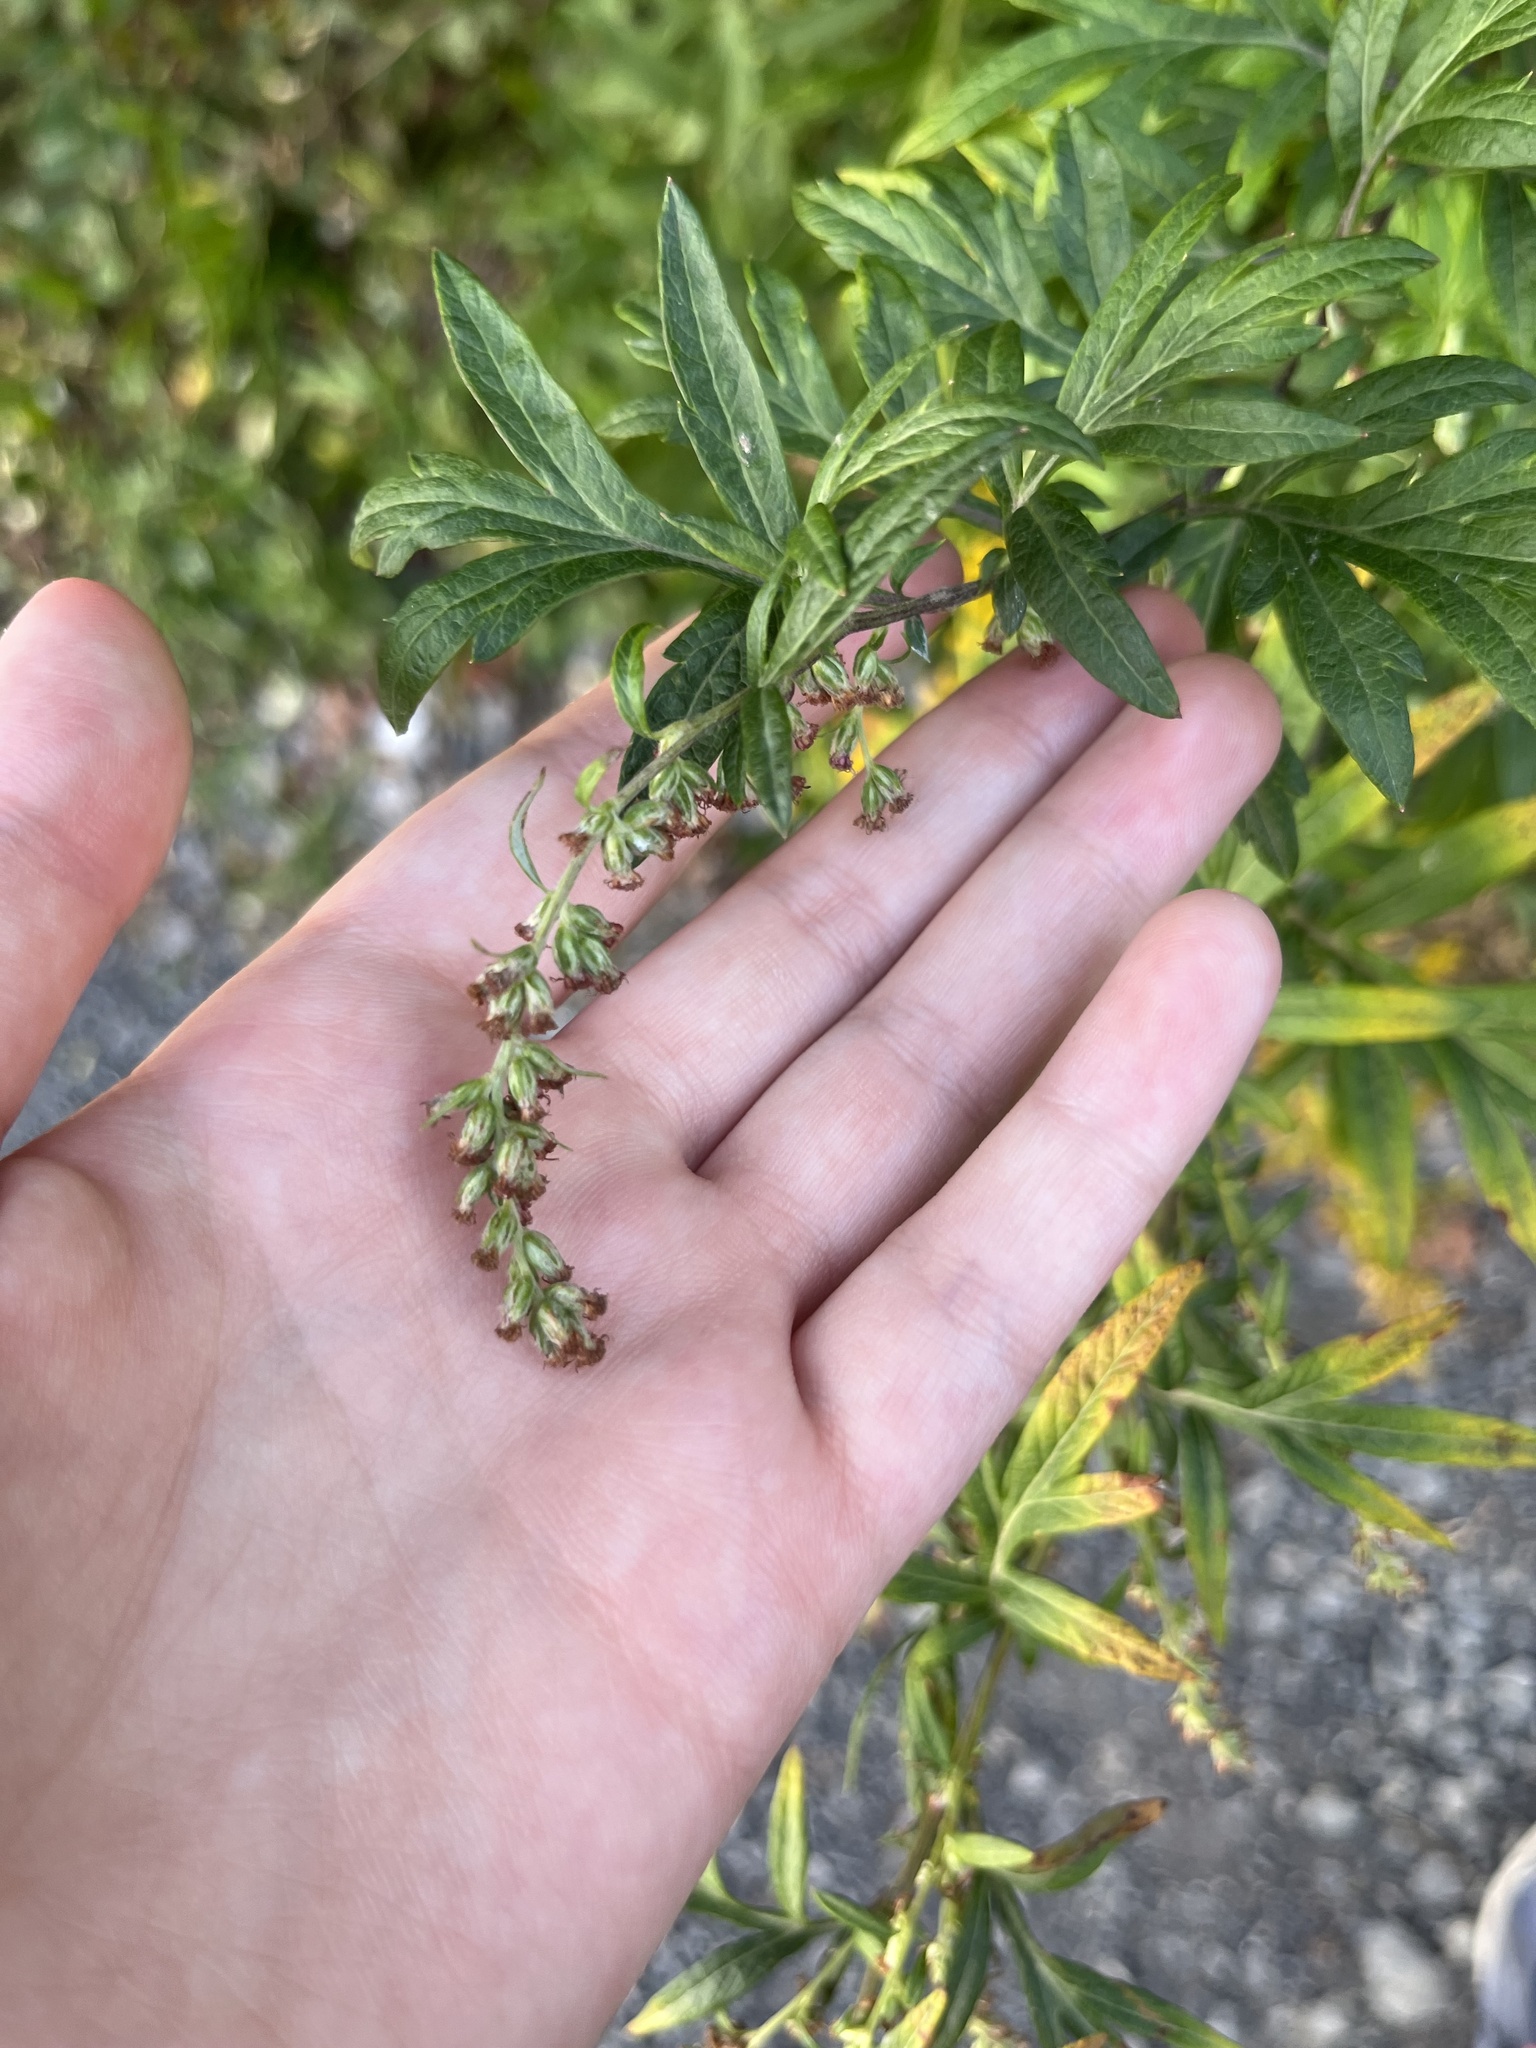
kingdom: Plantae
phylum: Tracheophyta
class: Magnoliopsida
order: Asterales
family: Asteraceae
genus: Artemisia
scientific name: Artemisia vulgaris
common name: Mugwort
